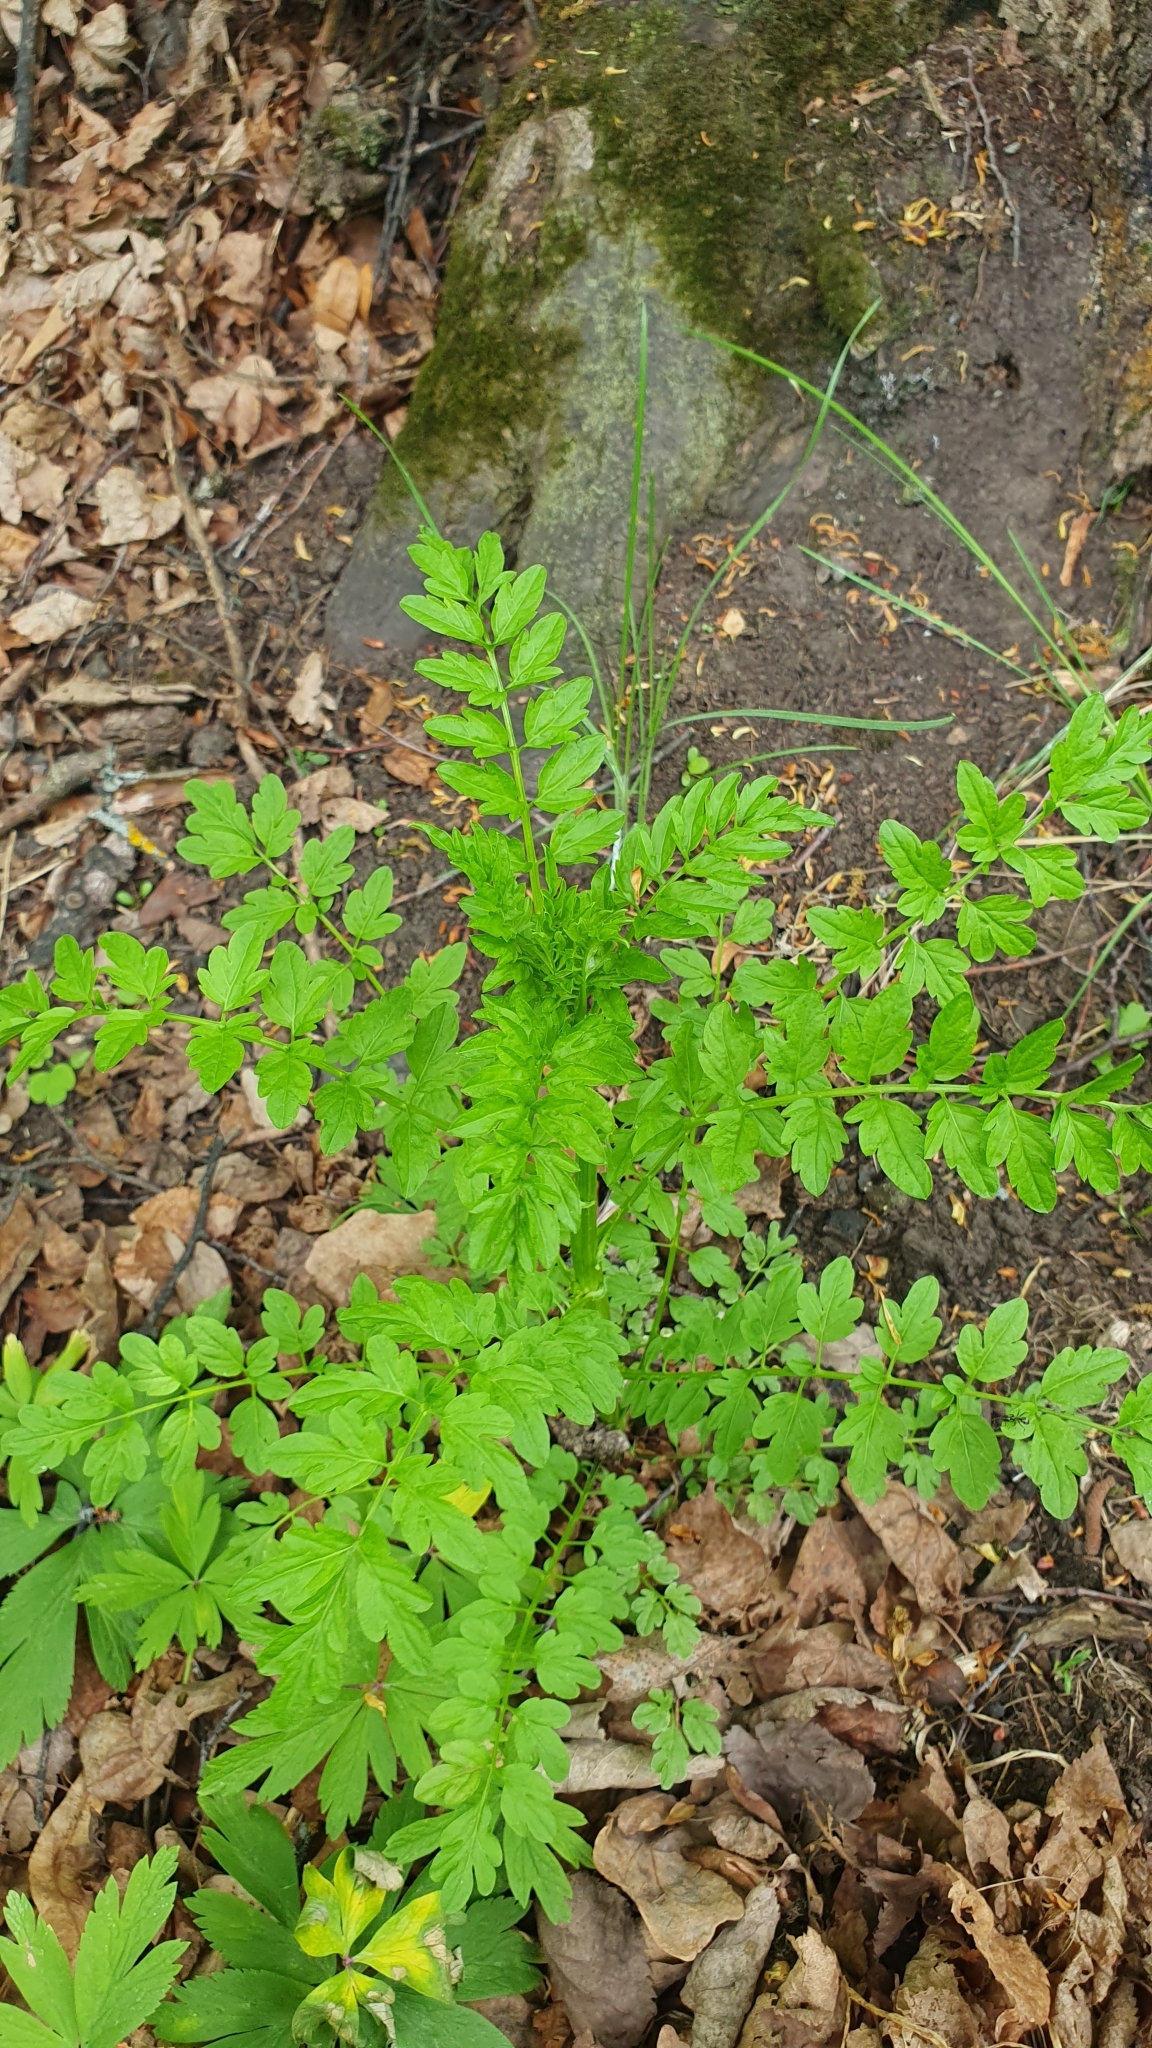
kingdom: Plantae
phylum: Tracheophyta
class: Magnoliopsida
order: Brassicales
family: Brassicaceae
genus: Cardamine
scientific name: Cardamine impatiens
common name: Narrow-leaved bitter-cress
